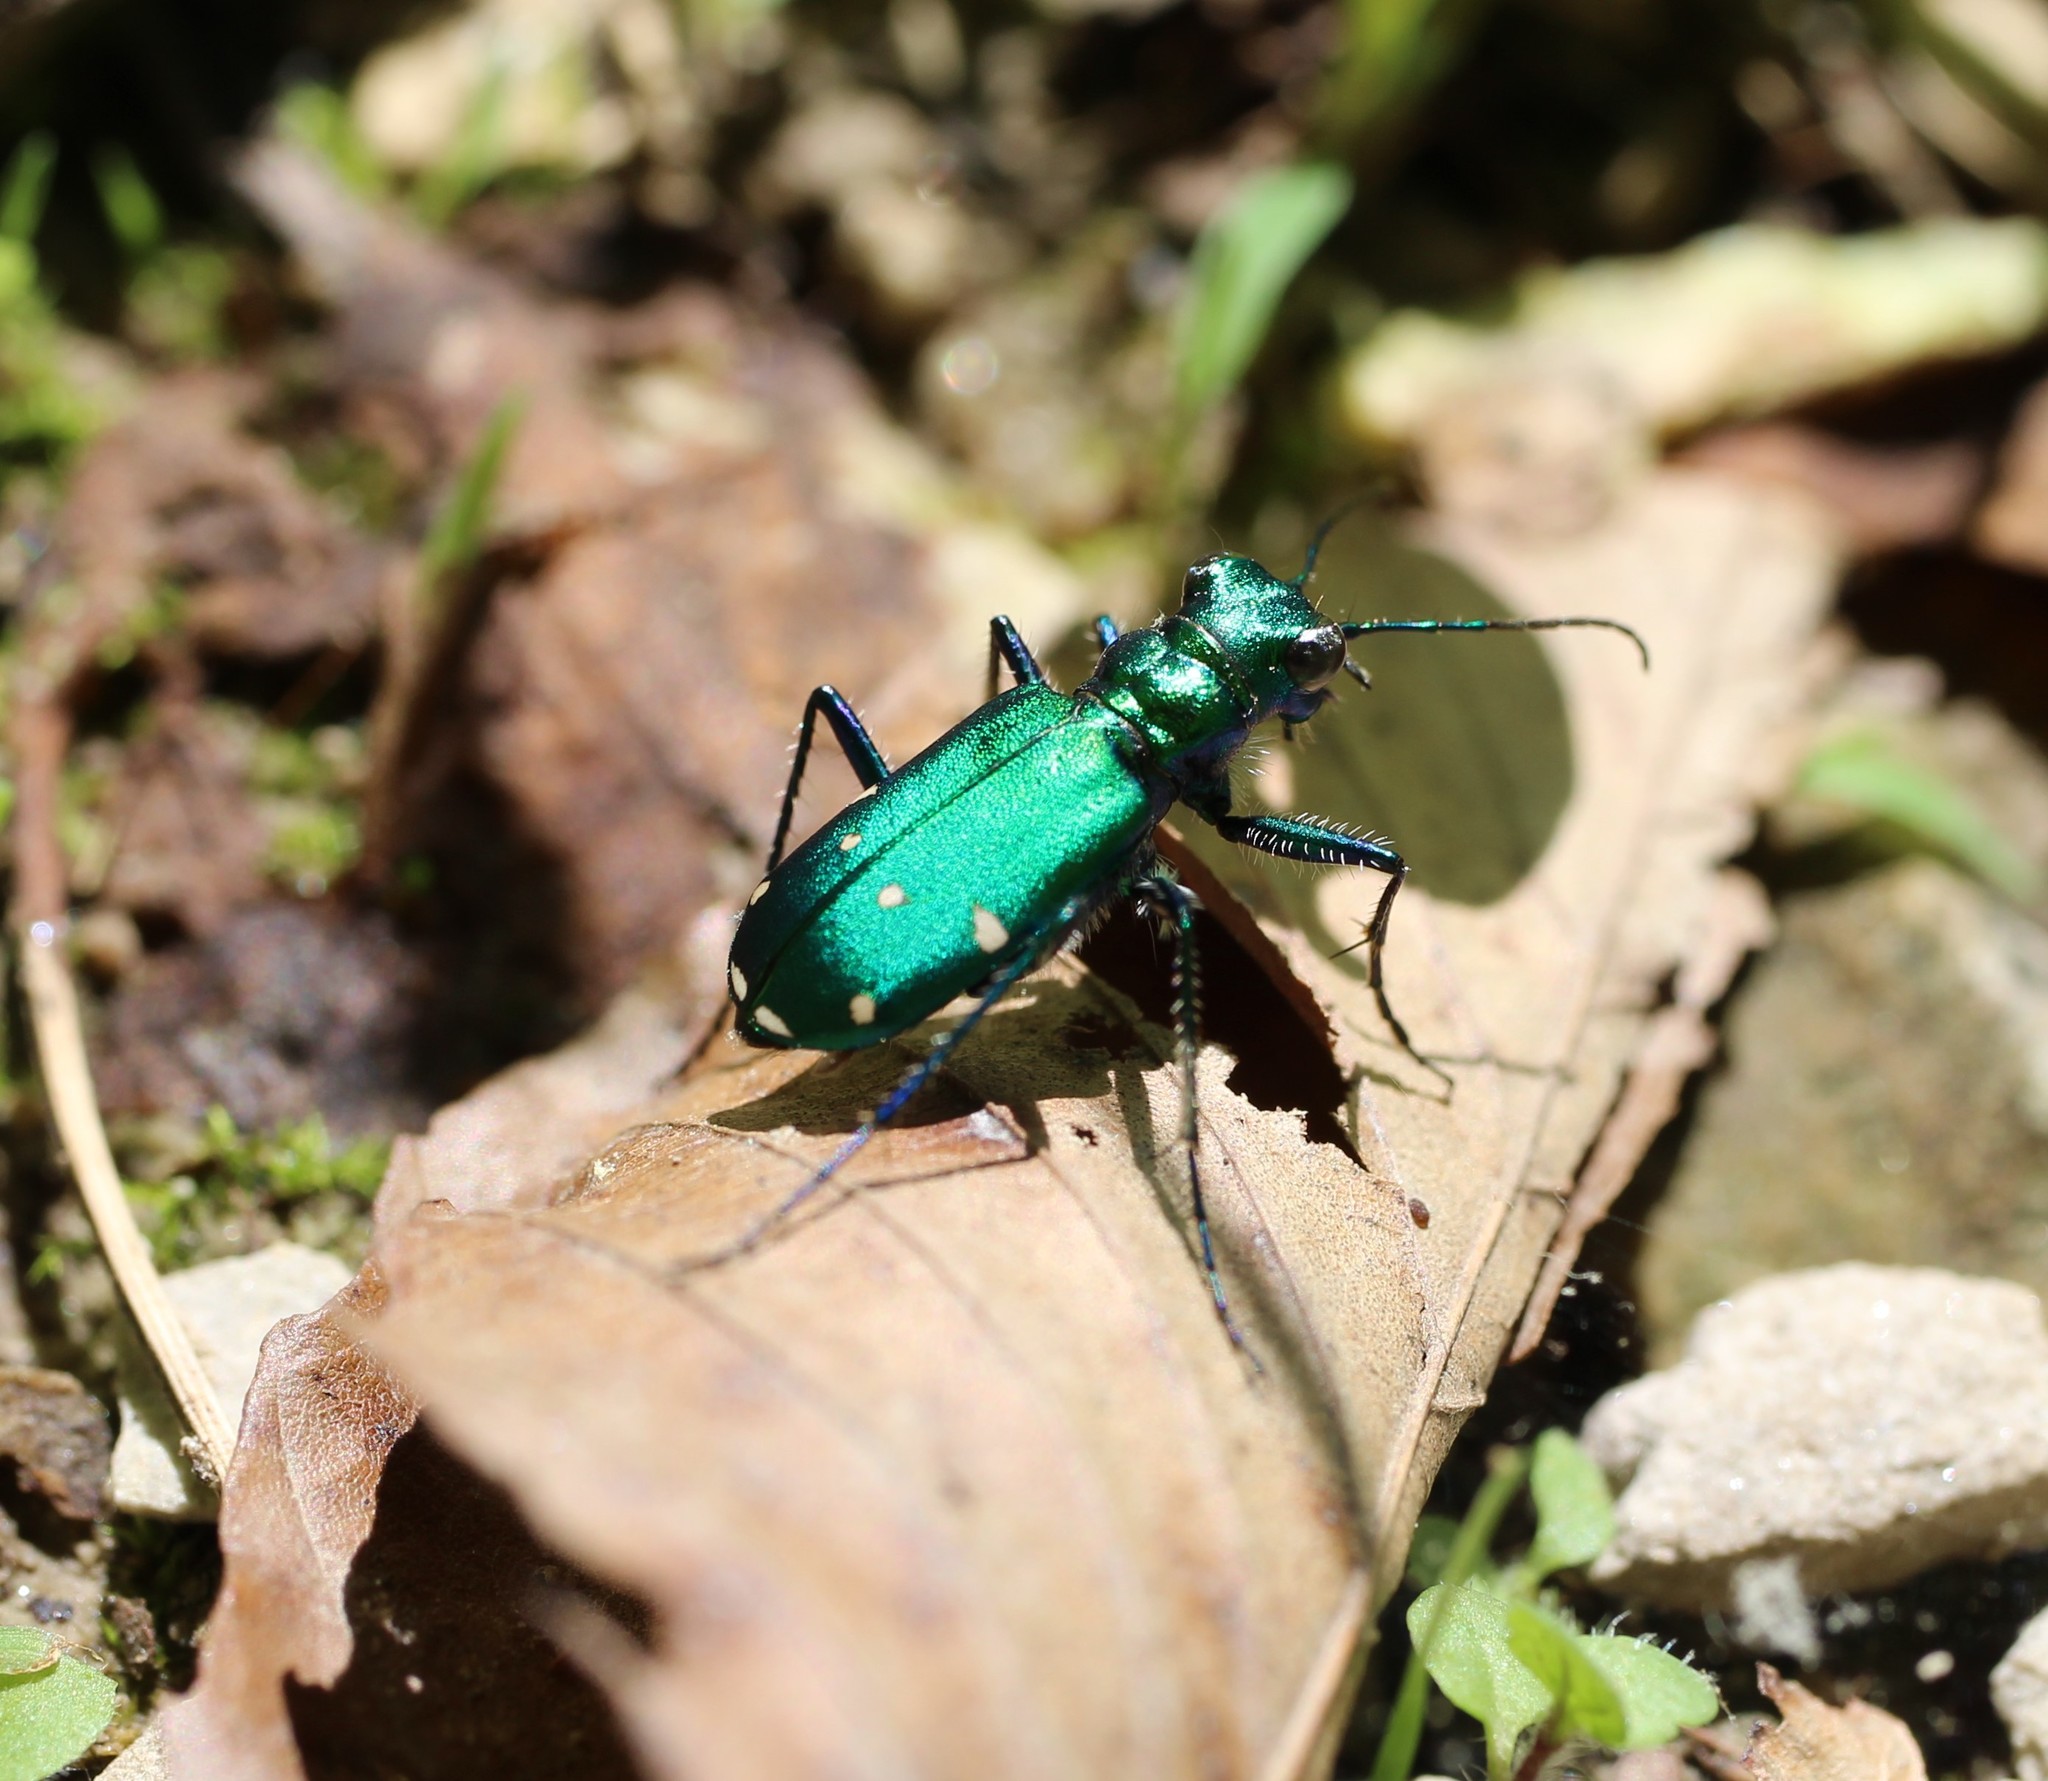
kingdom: Animalia
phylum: Arthropoda
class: Insecta
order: Coleoptera
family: Carabidae
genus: Cicindela
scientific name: Cicindela sexguttata
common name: Six-spotted tiger beetle
